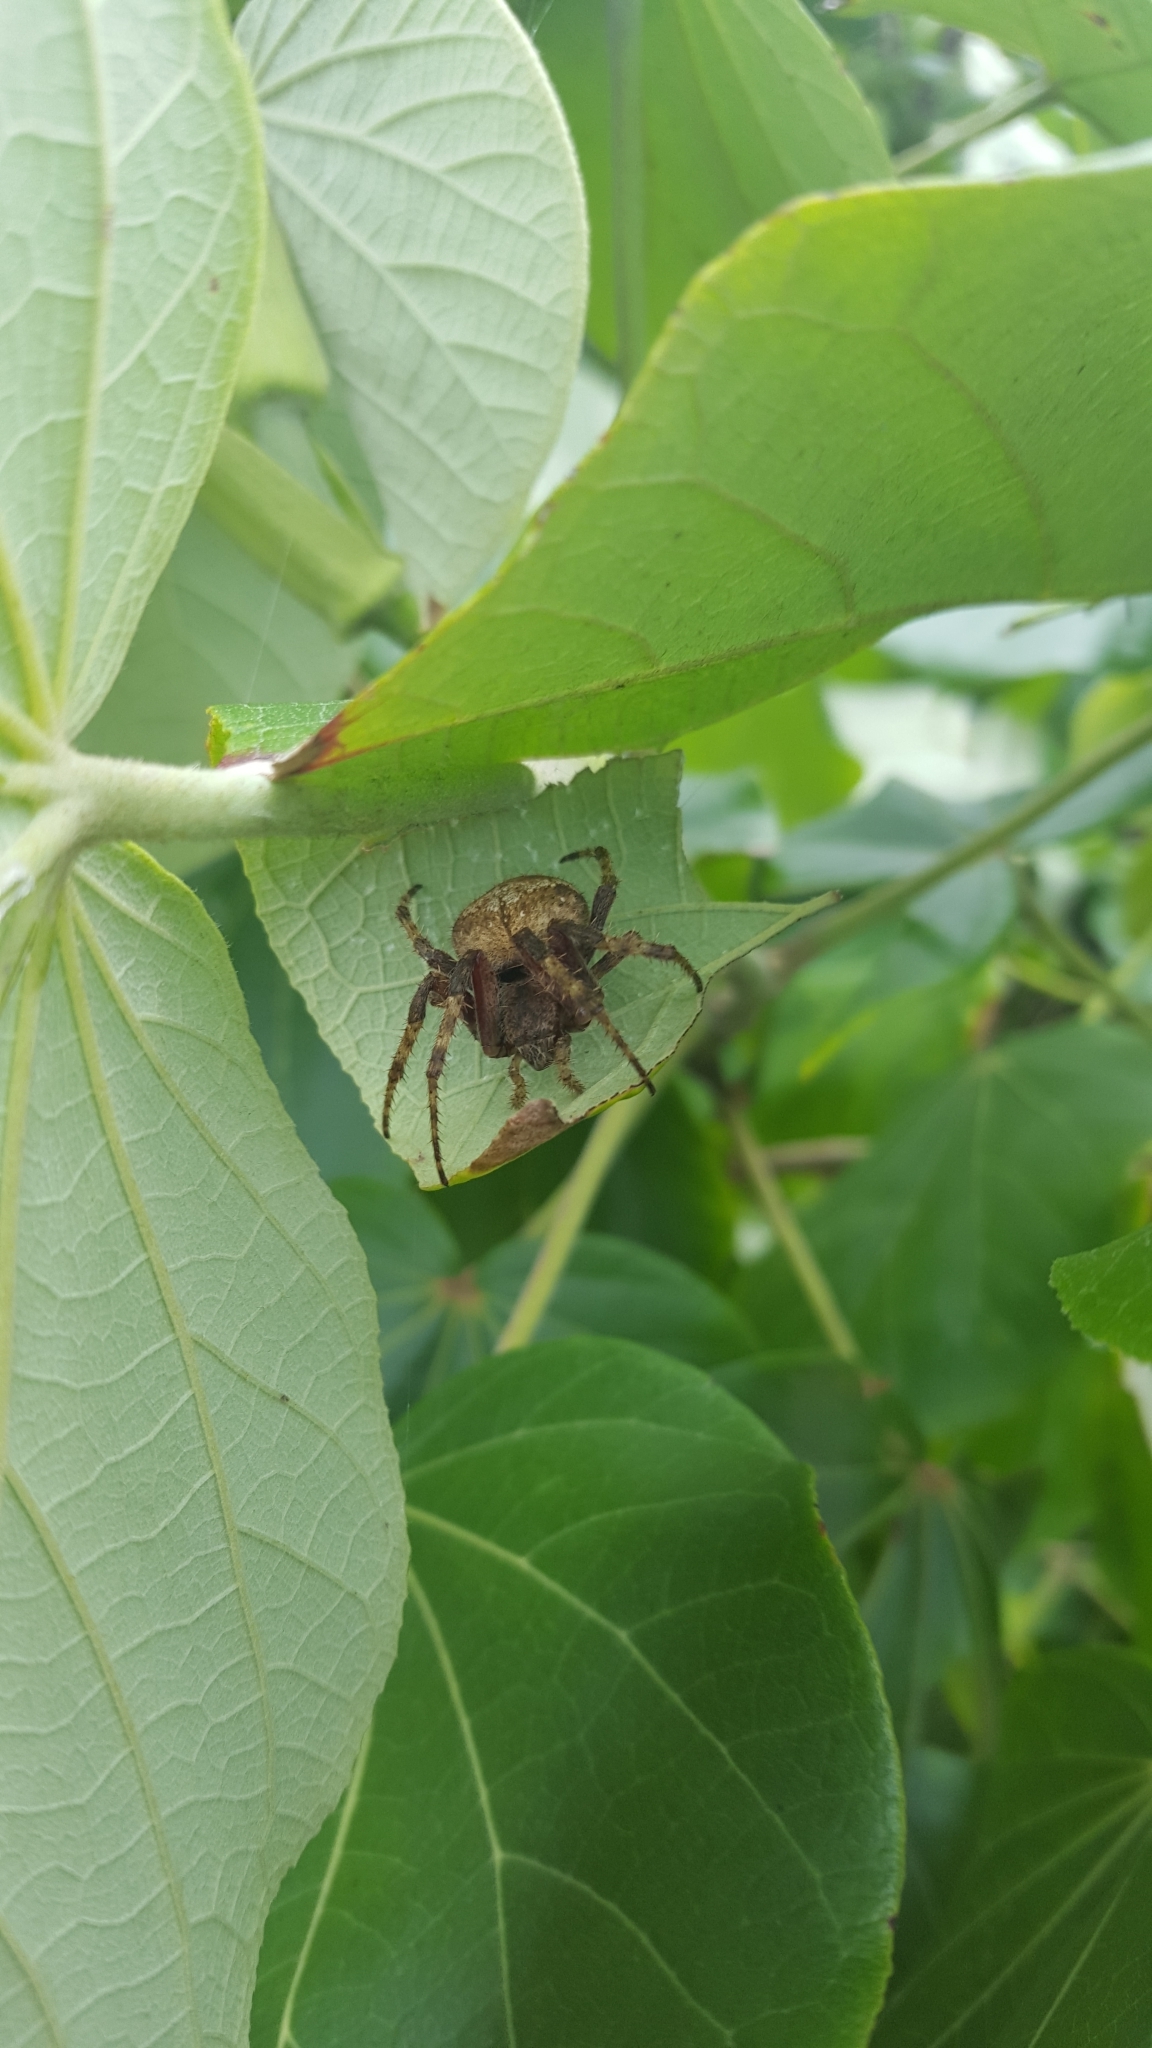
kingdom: Animalia
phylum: Arthropoda
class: Arachnida
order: Araneae
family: Araneidae
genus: Eriophora
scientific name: Eriophora edax
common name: Orb weavers
